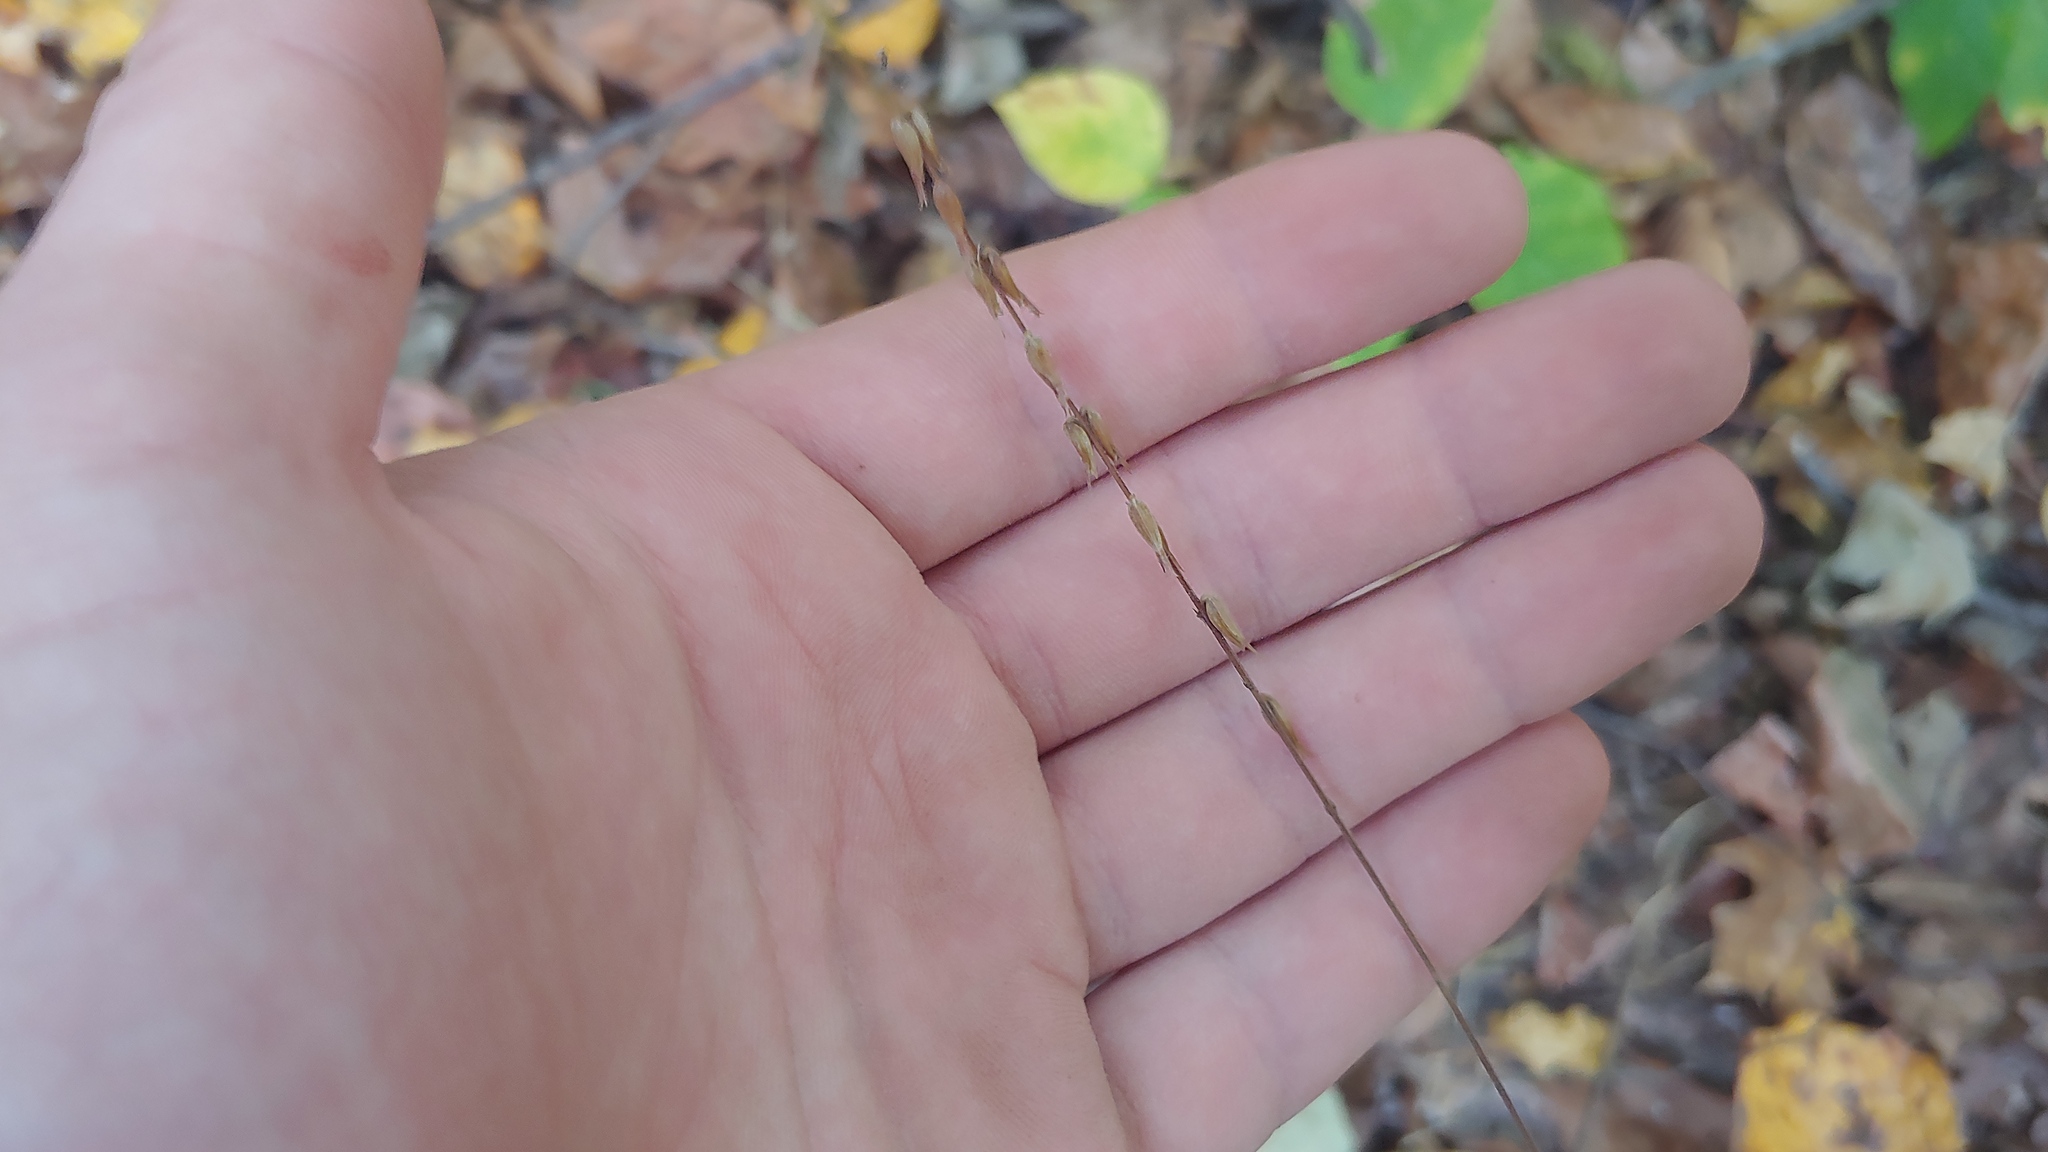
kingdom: Plantae
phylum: Tracheophyta
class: Magnoliopsida
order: Lamiales
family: Phrymaceae
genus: Phryma
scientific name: Phryma leptostachya
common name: American lopseed
